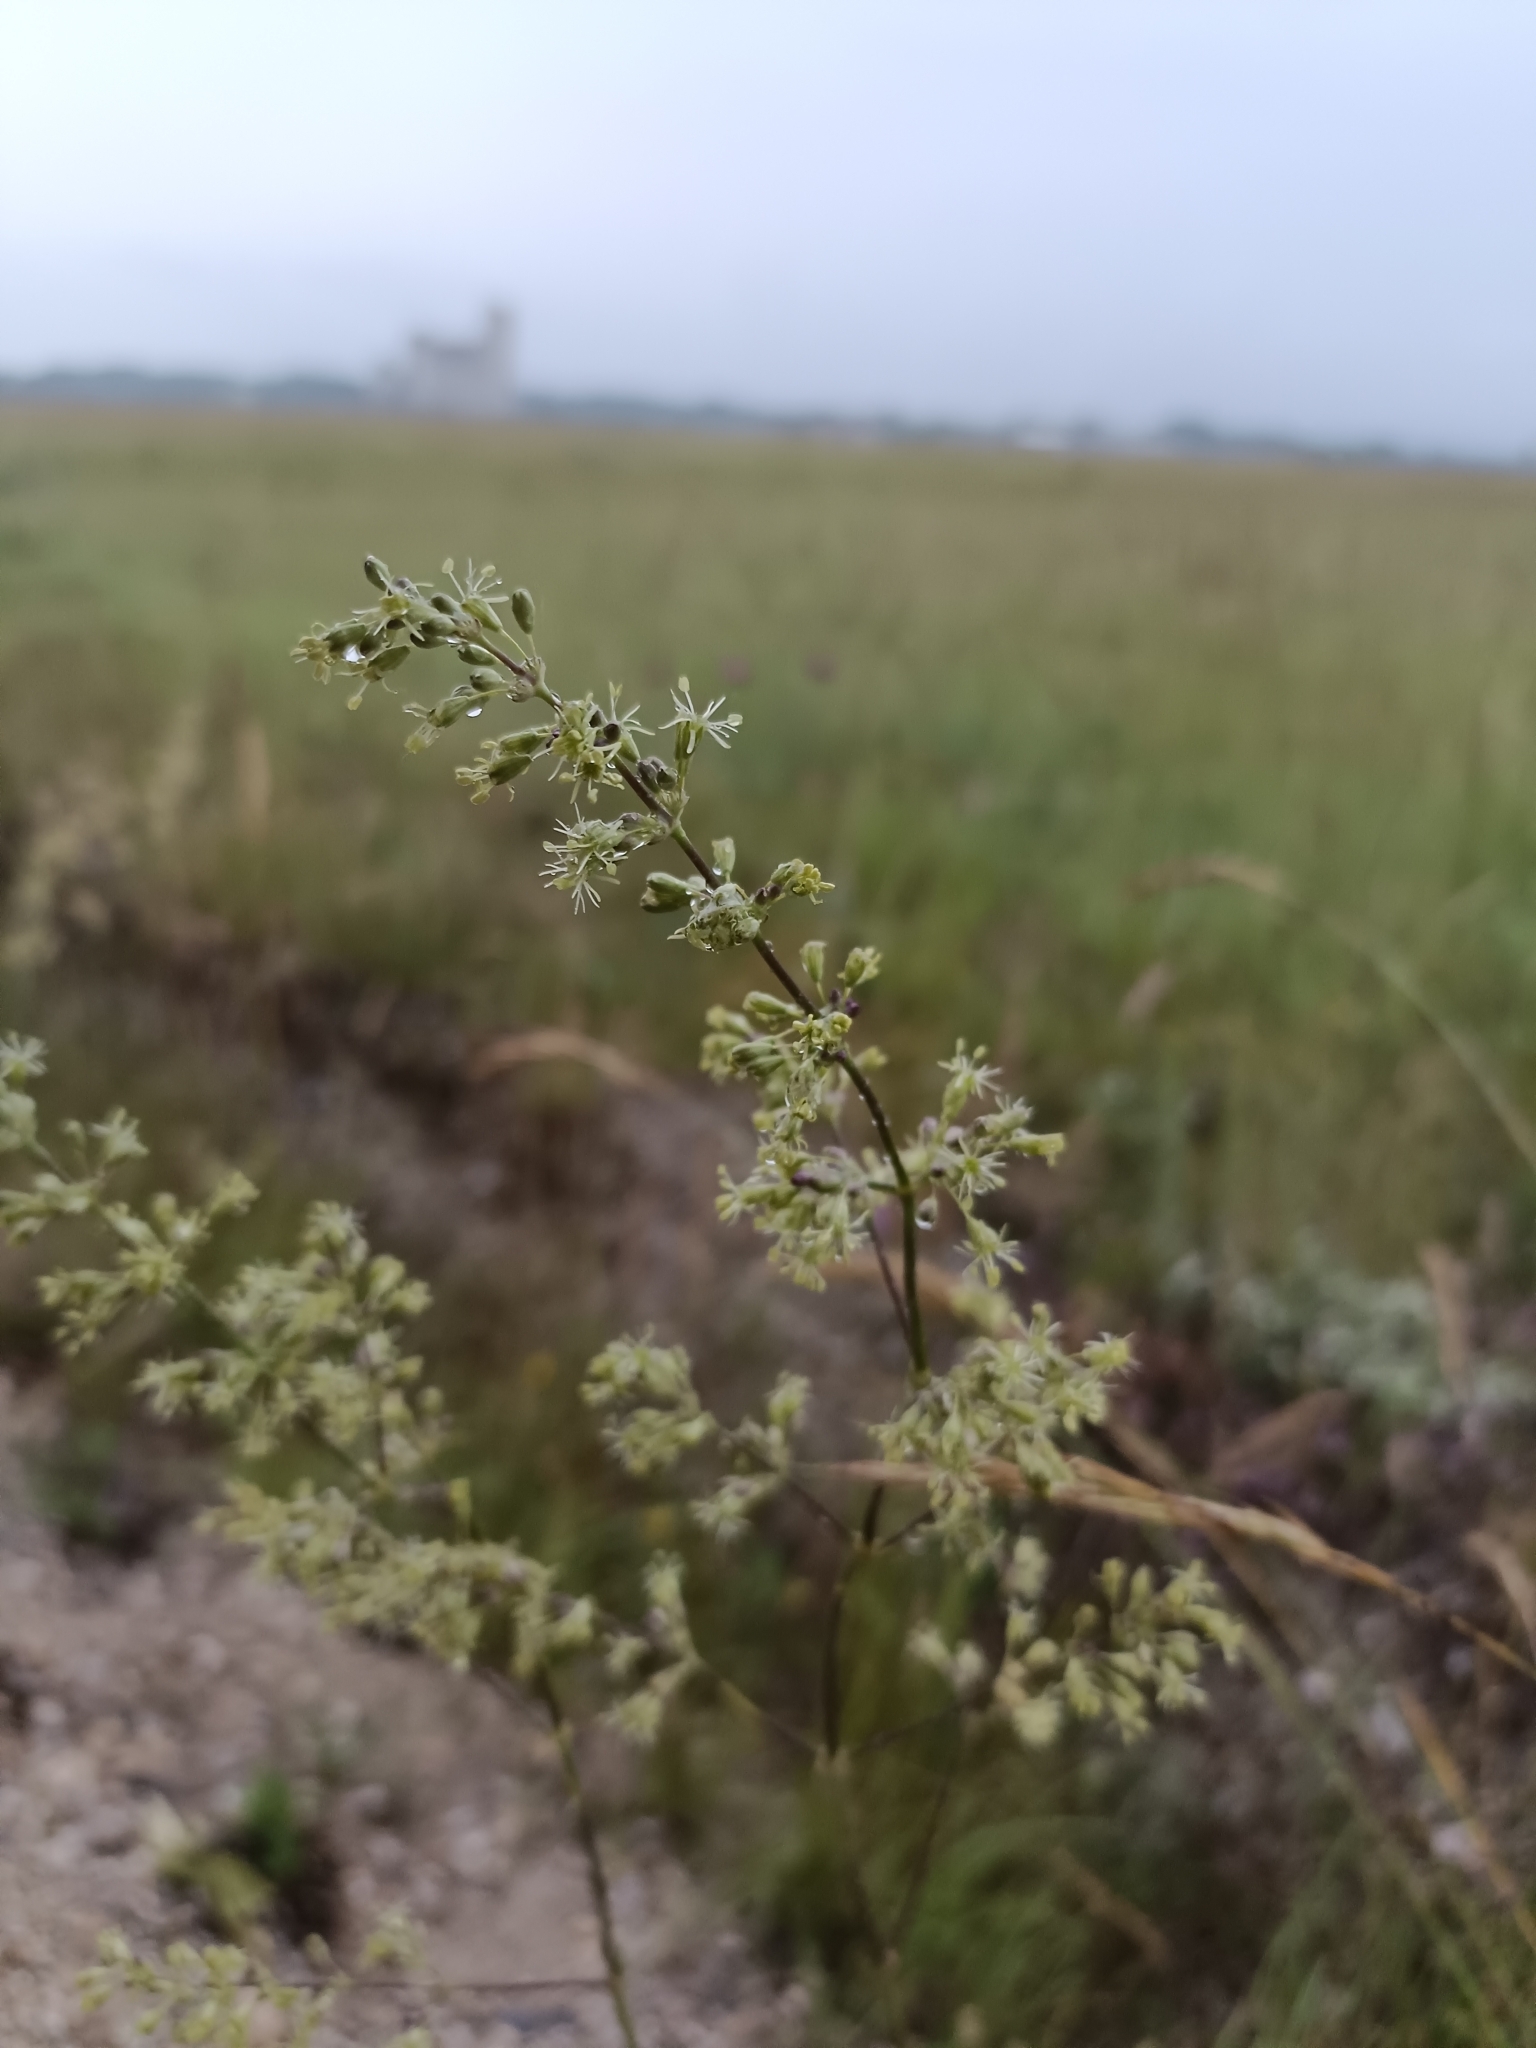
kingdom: Plantae
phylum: Tracheophyta
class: Magnoliopsida
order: Caryophyllales
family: Caryophyllaceae
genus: Silene
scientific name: Silene otites
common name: Spanish catchfly
